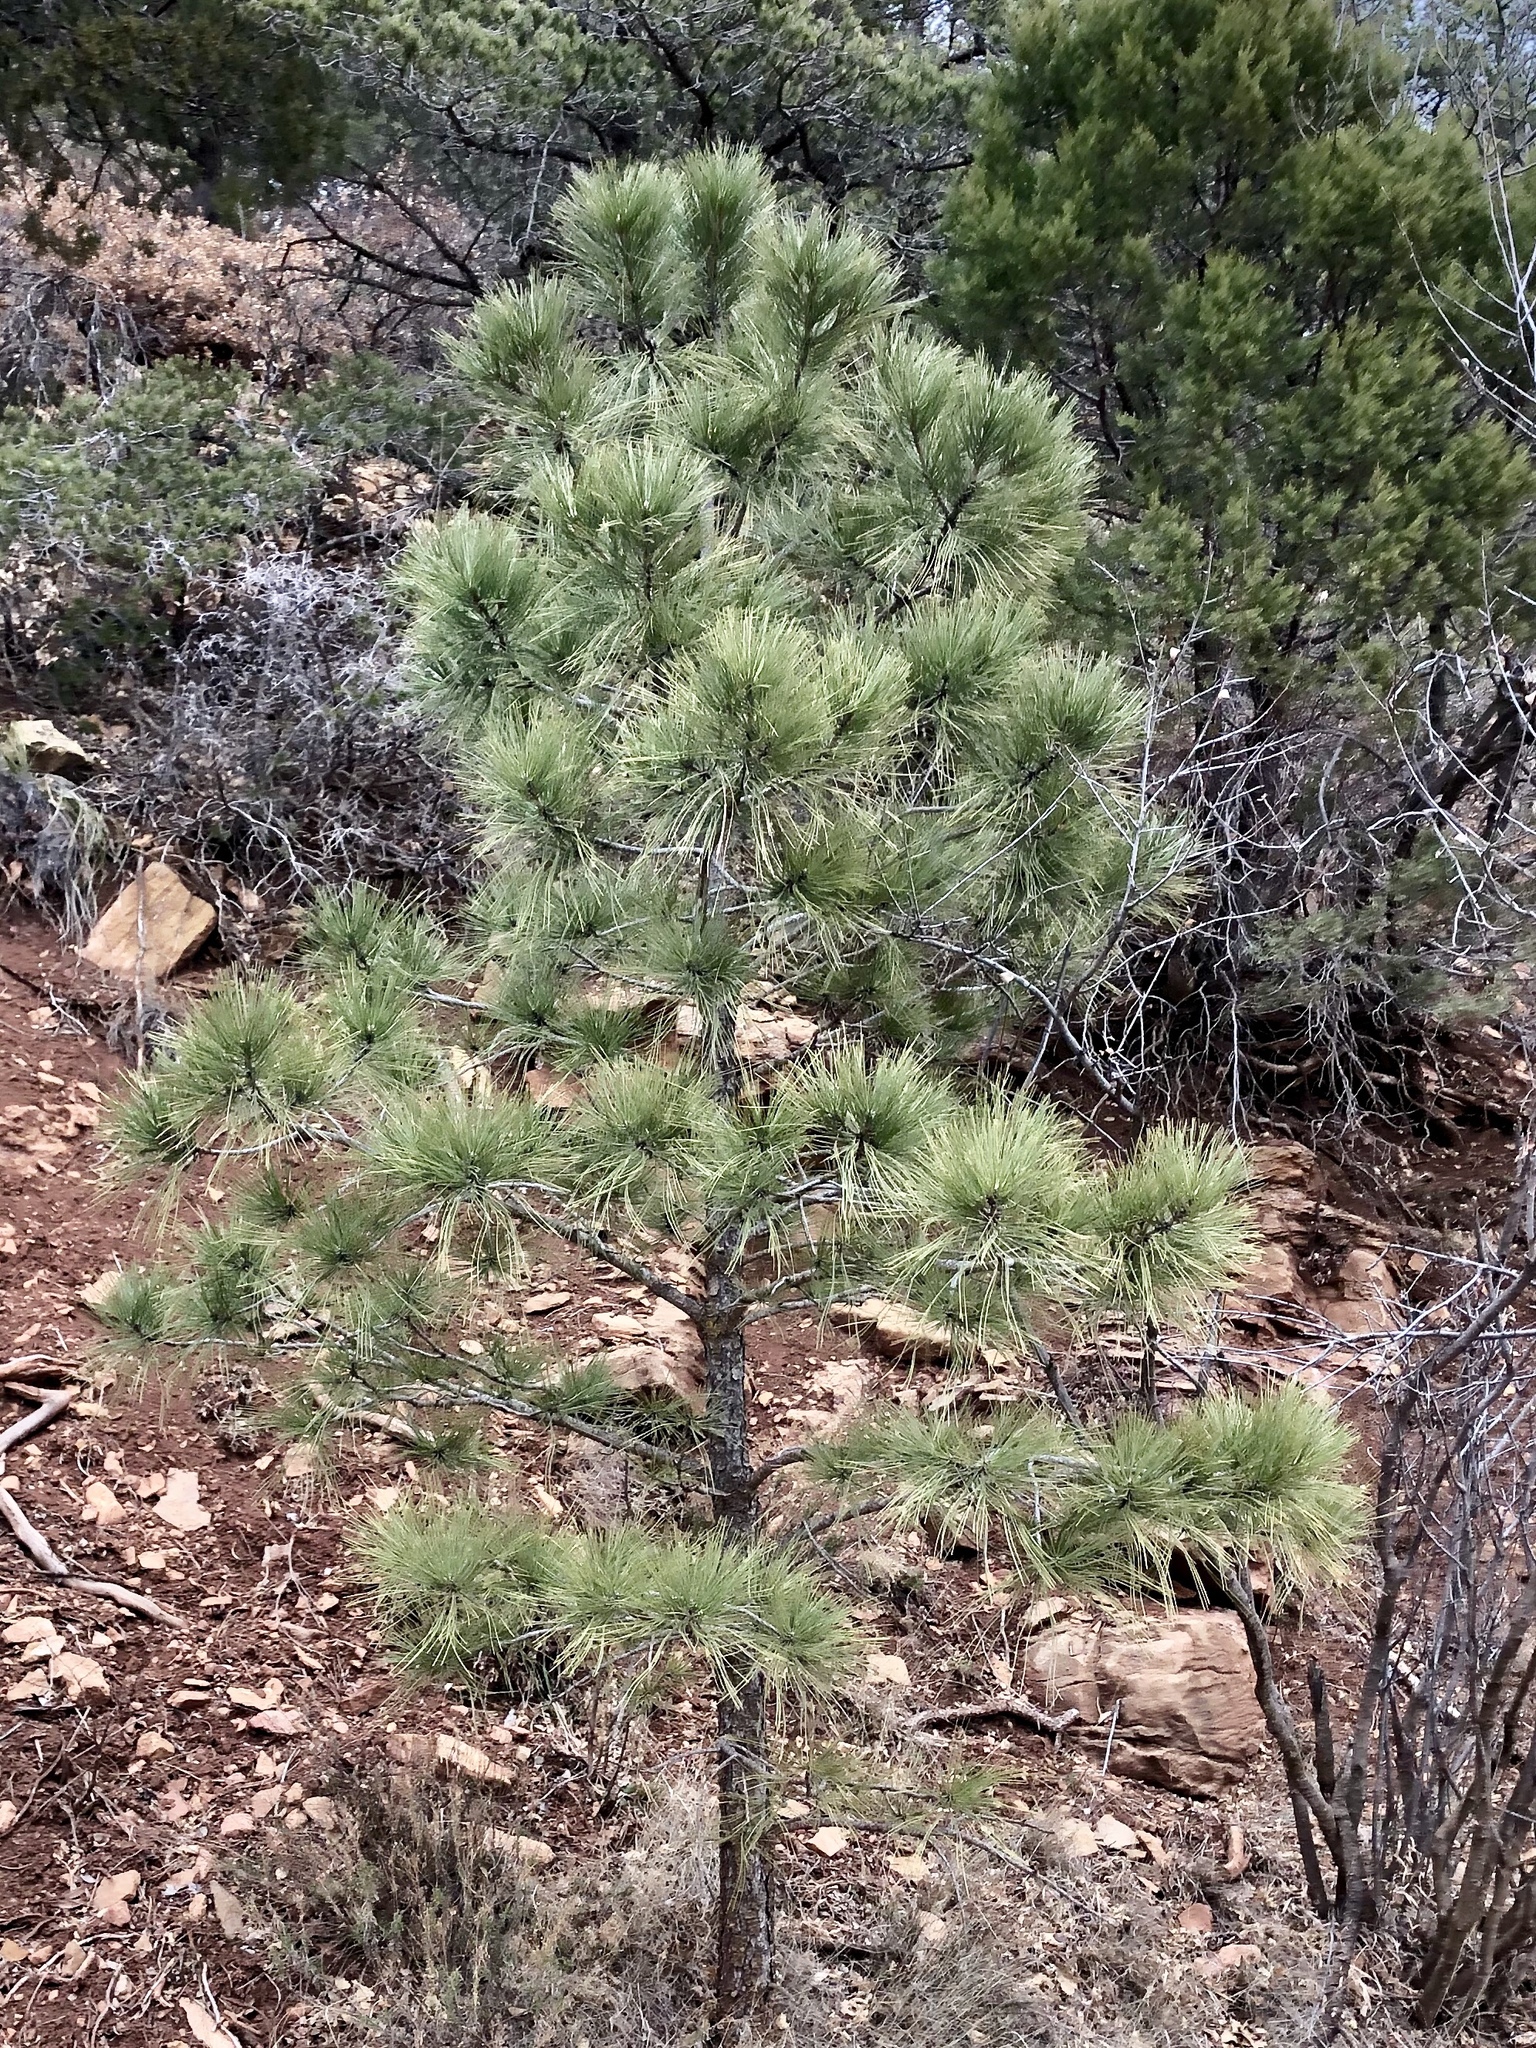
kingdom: Plantae
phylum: Tracheophyta
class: Pinopsida
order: Pinales
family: Pinaceae
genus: Pinus
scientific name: Pinus ponderosa
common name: Western yellow-pine
